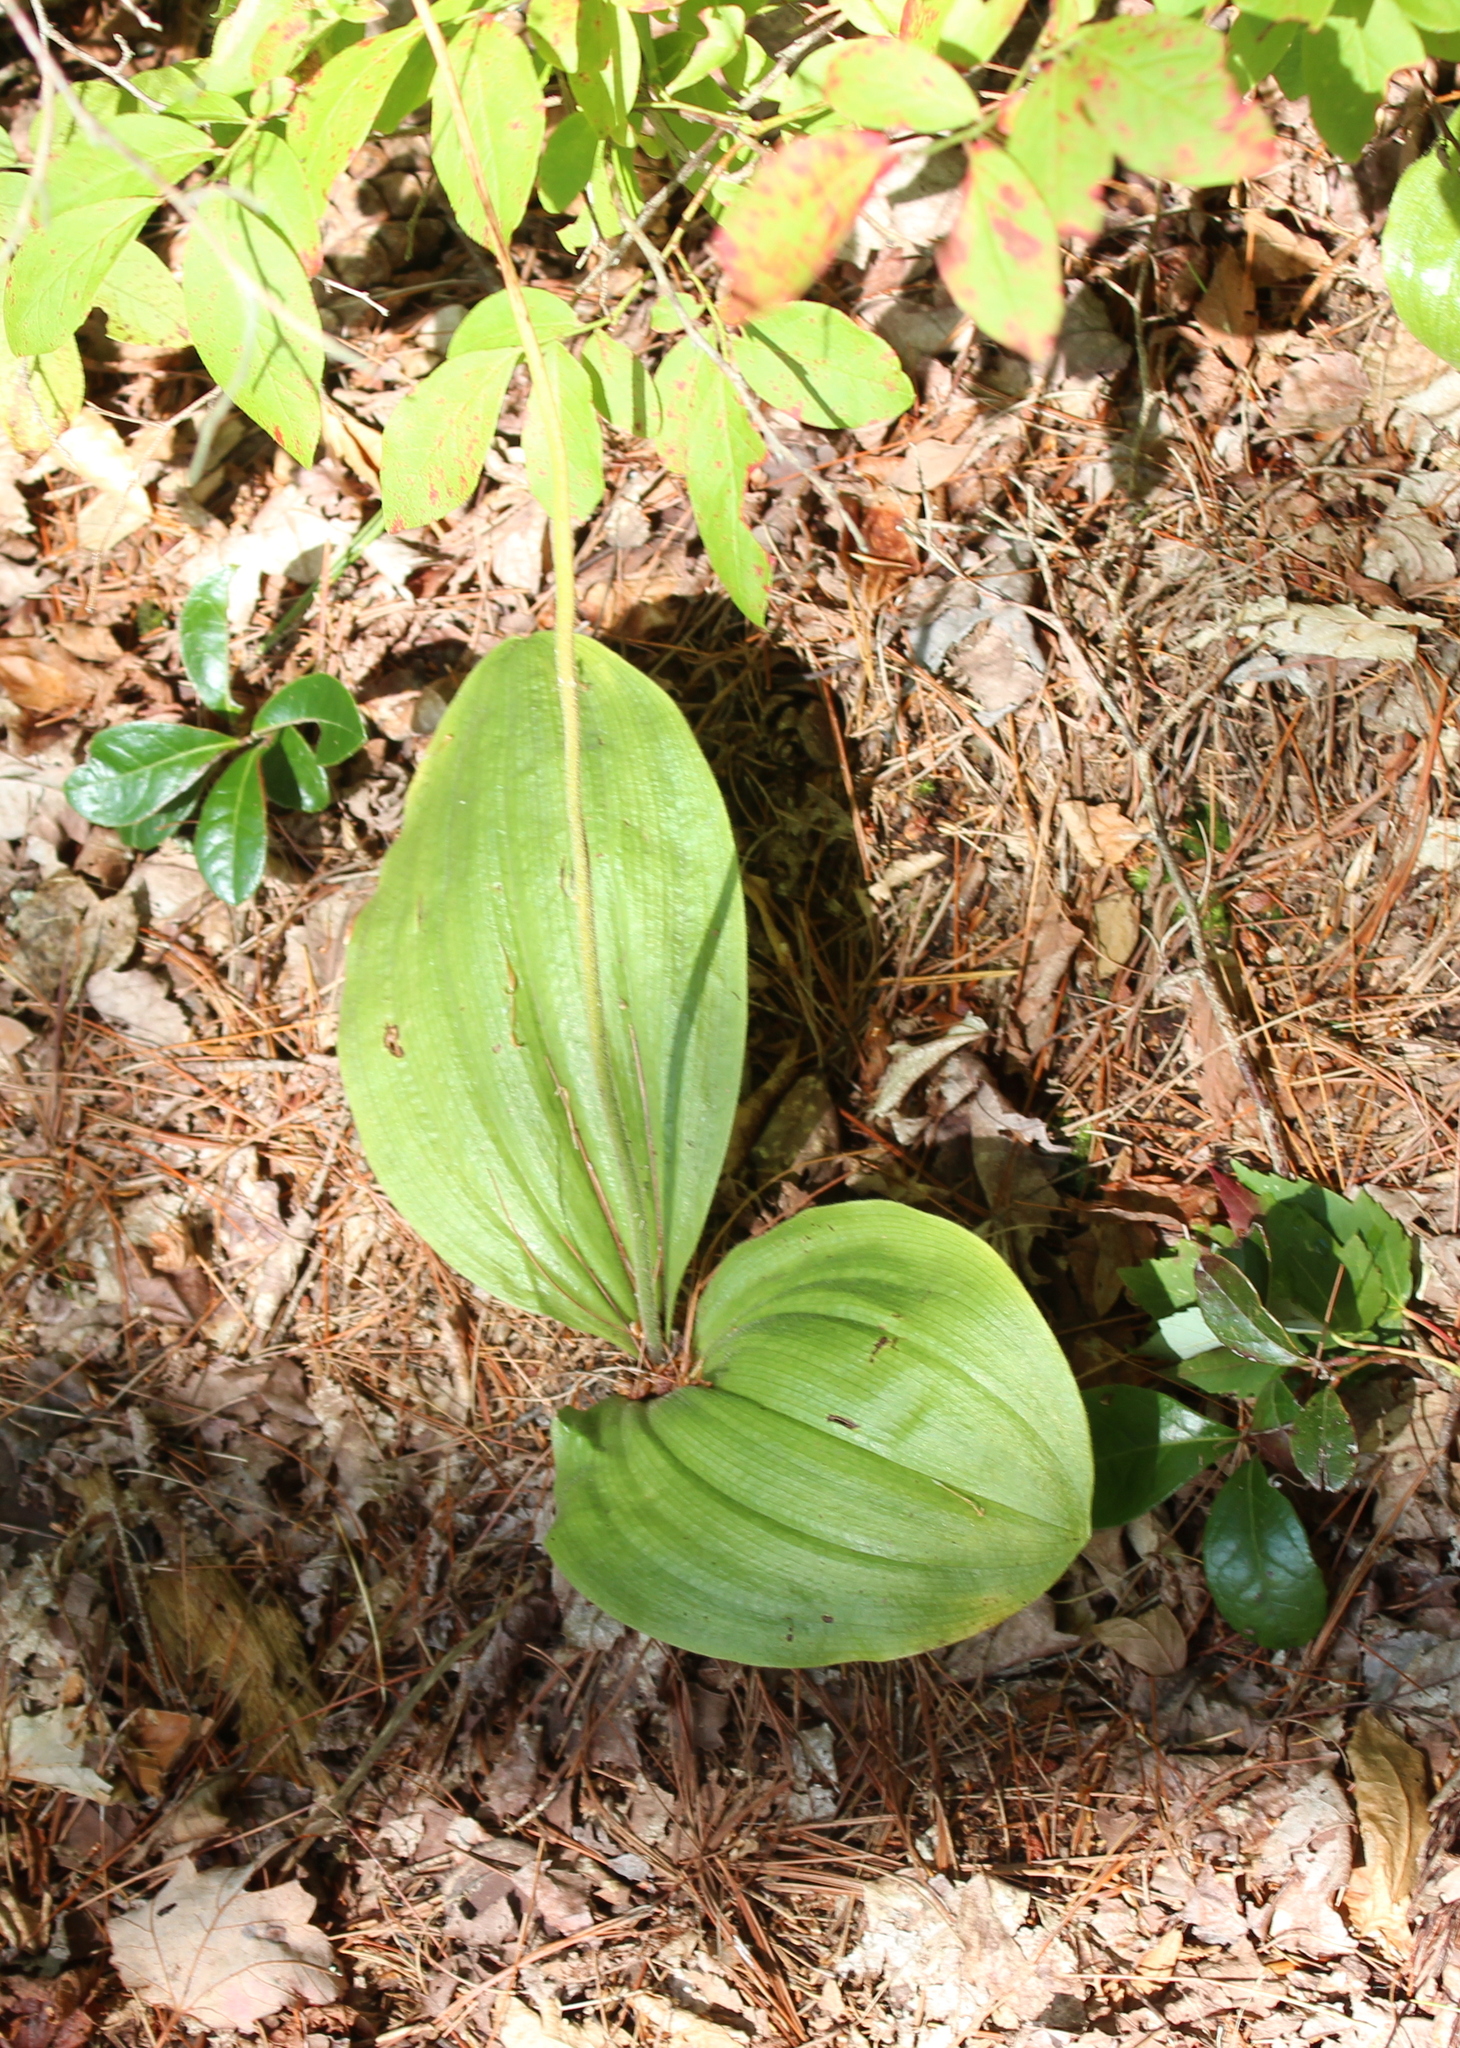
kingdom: Plantae
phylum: Tracheophyta
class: Liliopsida
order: Asparagales
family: Orchidaceae
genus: Cypripedium
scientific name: Cypripedium acaule
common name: Pink lady's-slipper
